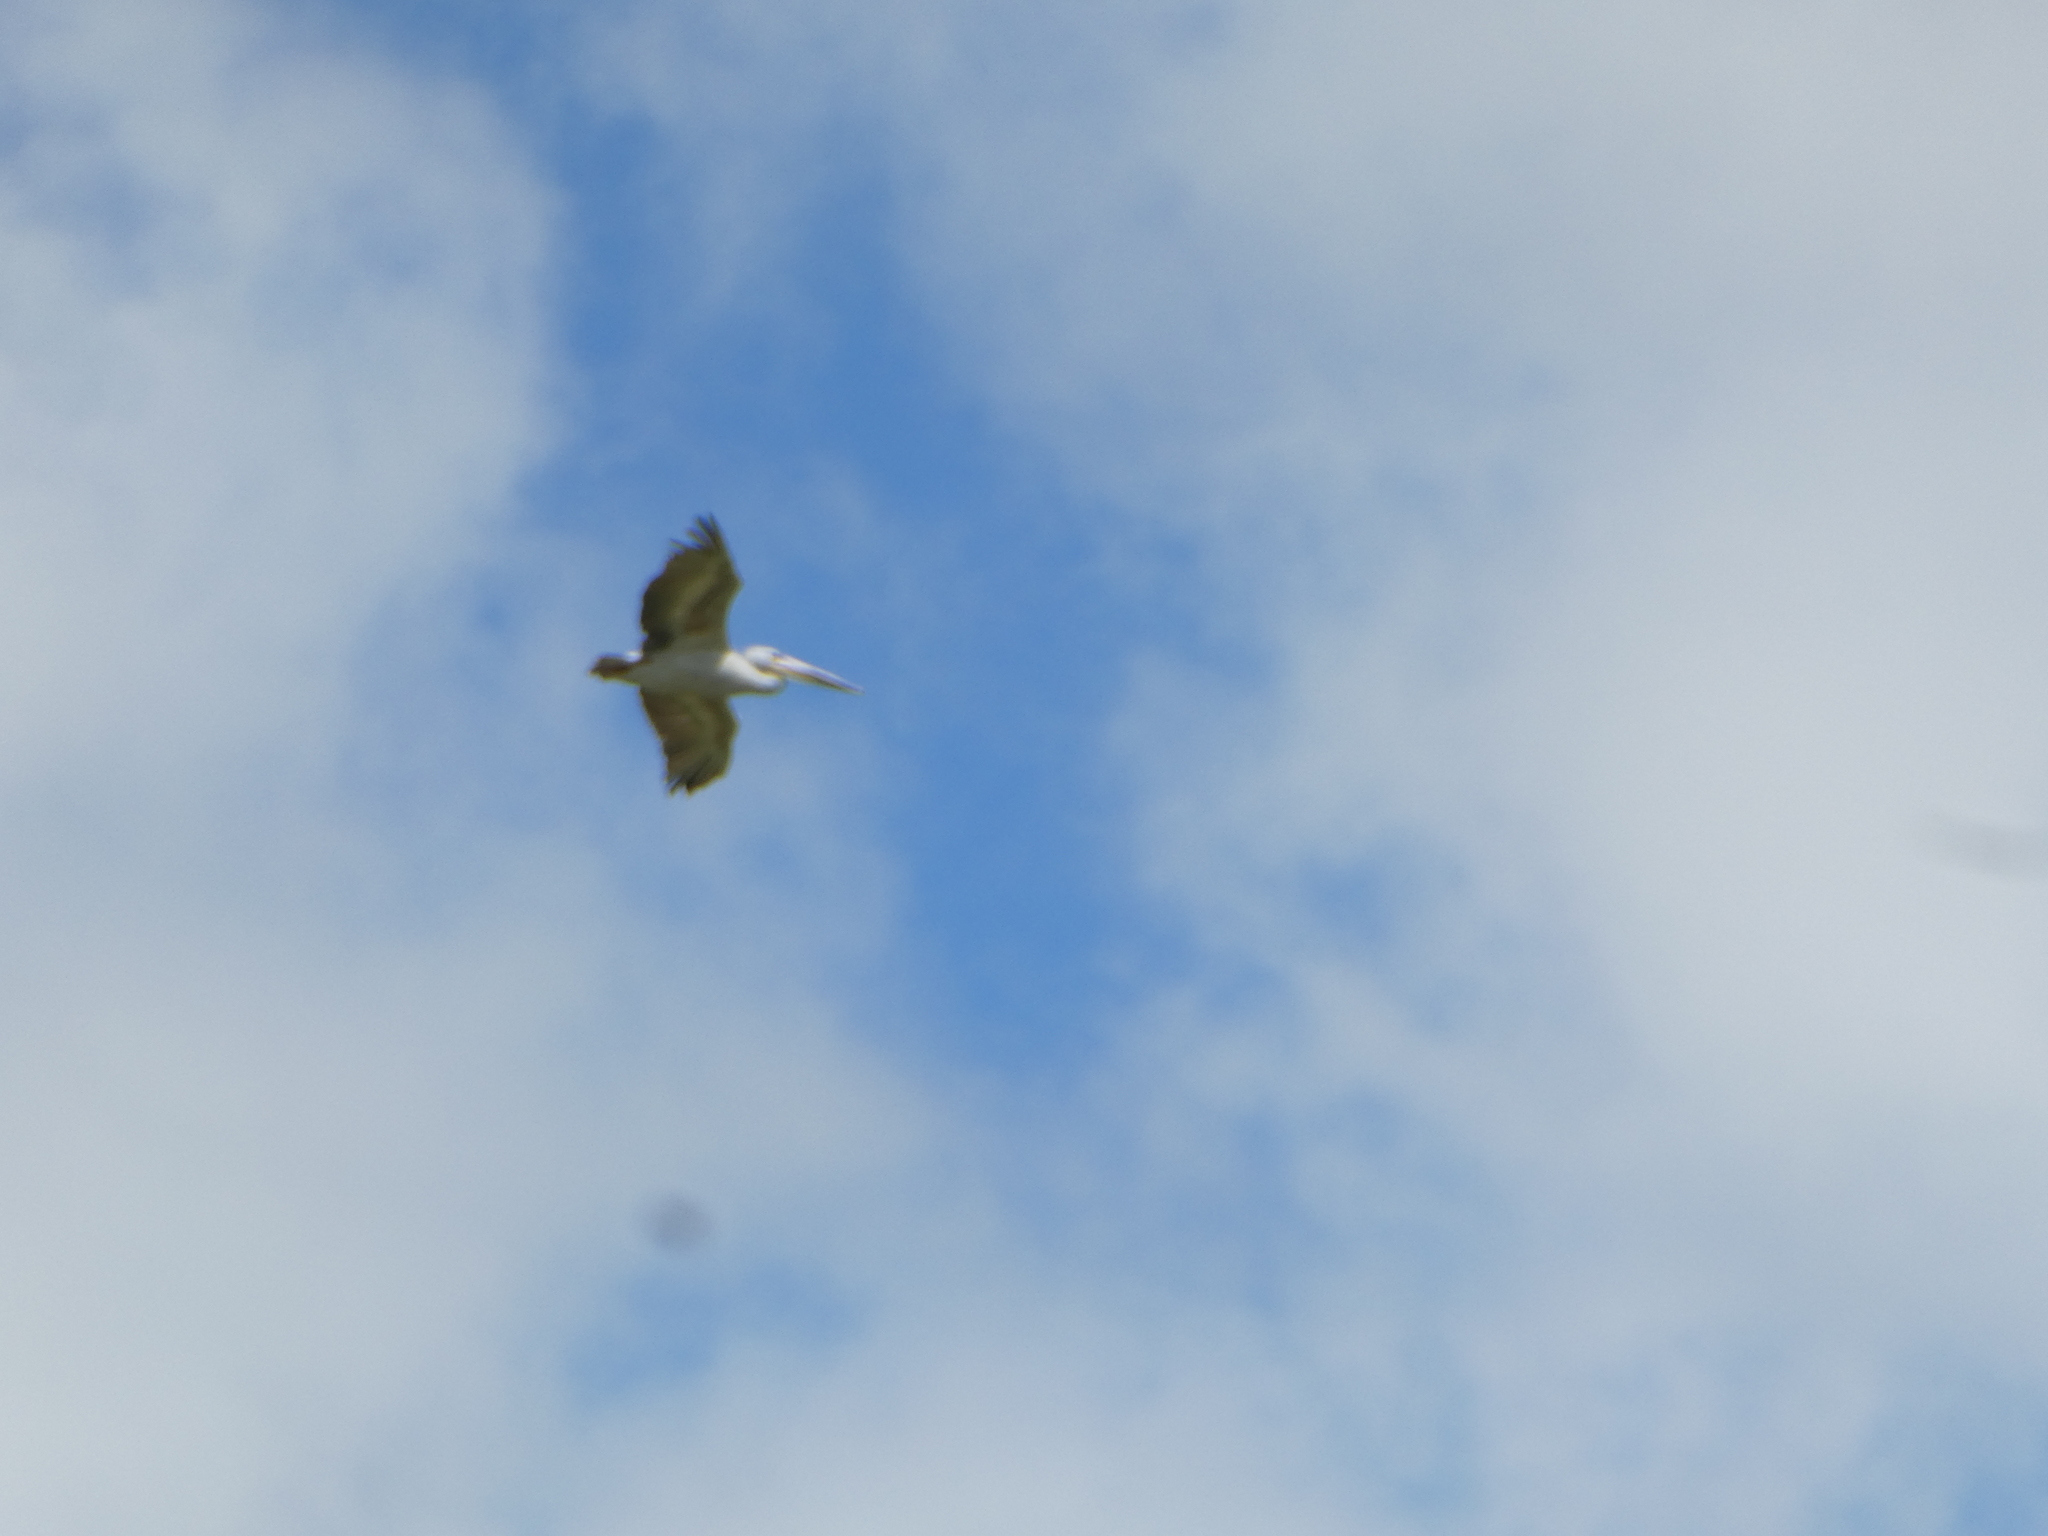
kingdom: Animalia
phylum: Chordata
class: Aves
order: Pelecaniformes
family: Pelecanidae
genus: Pelecanus
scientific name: Pelecanus onocrotalus
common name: Great white pelican
